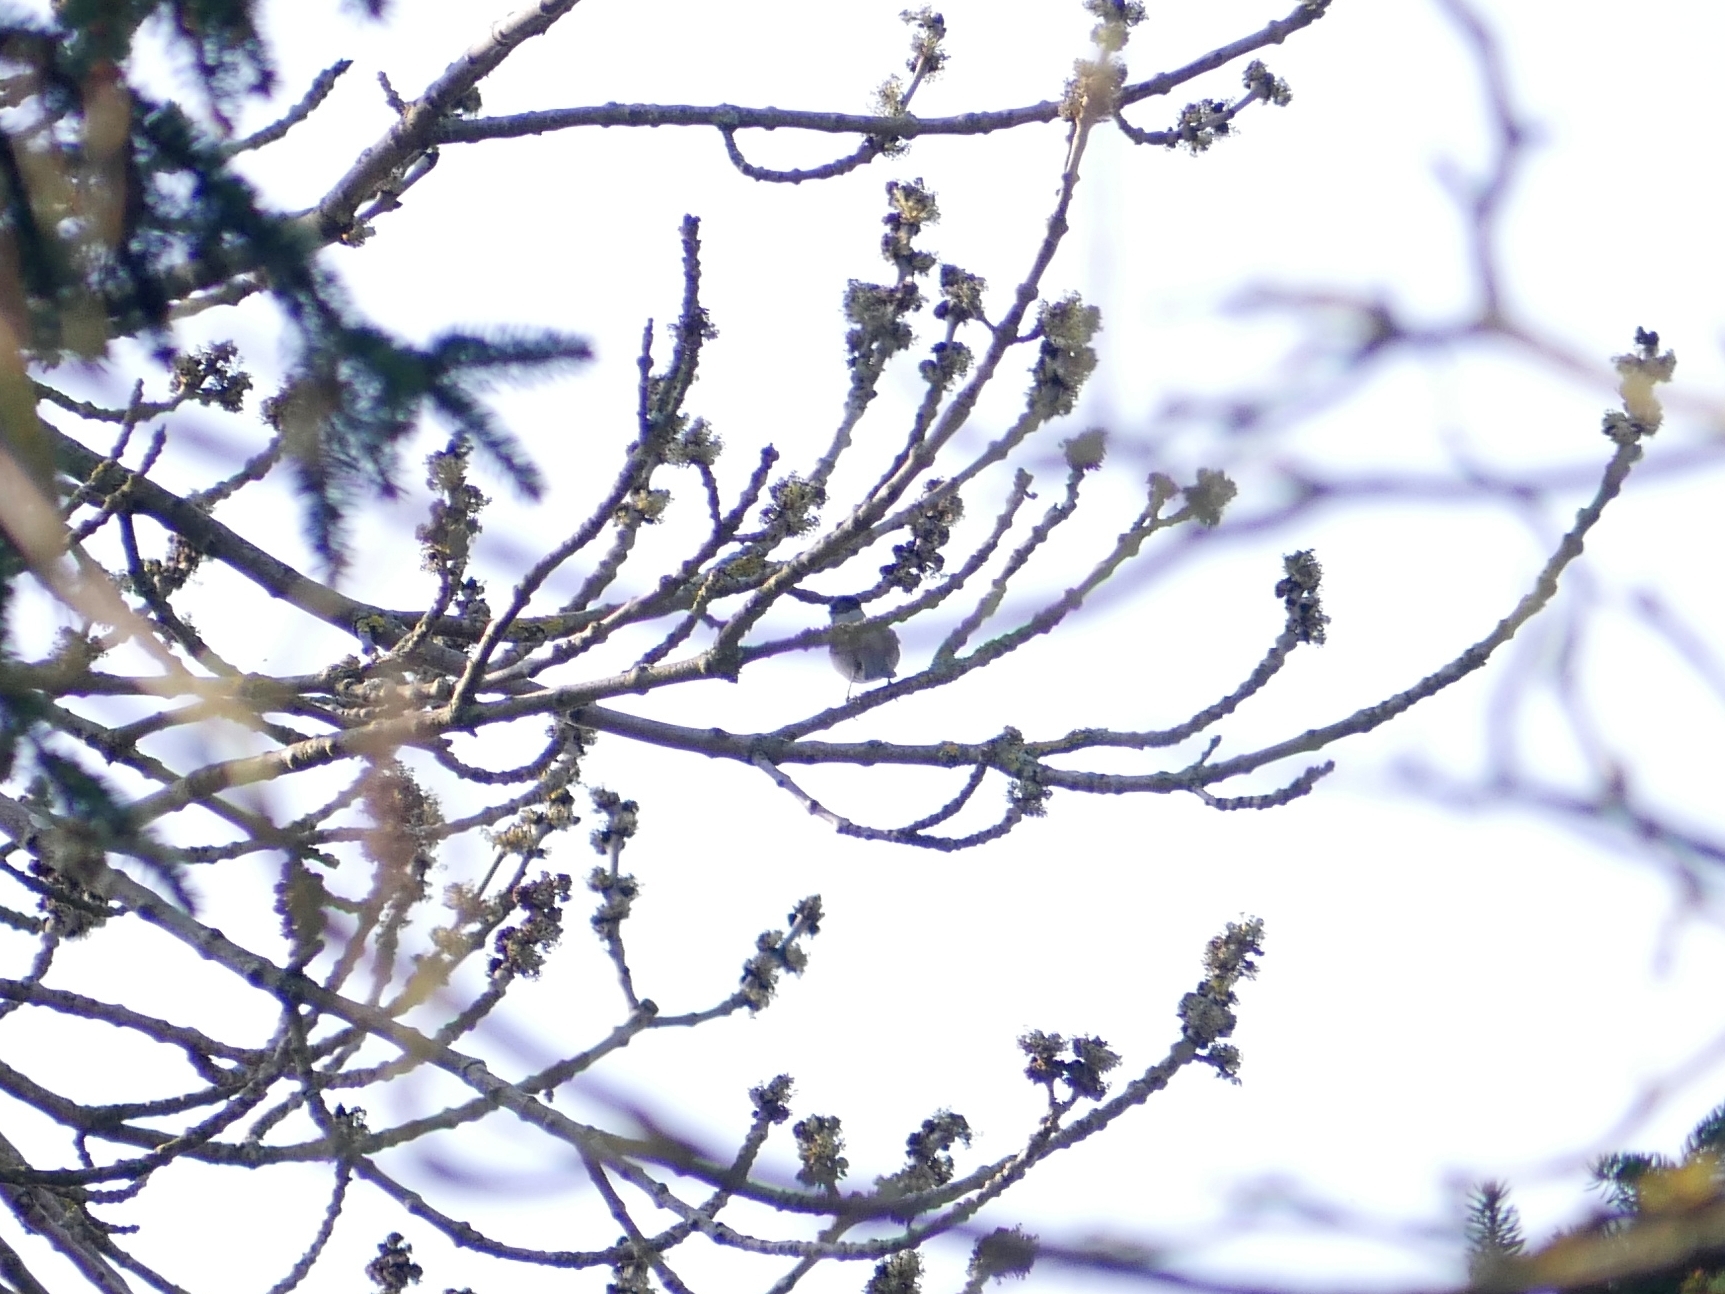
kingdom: Animalia
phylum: Chordata
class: Aves
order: Passeriformes
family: Sylviidae
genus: Sylvia
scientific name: Sylvia atricapilla
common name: Eurasian blackcap
